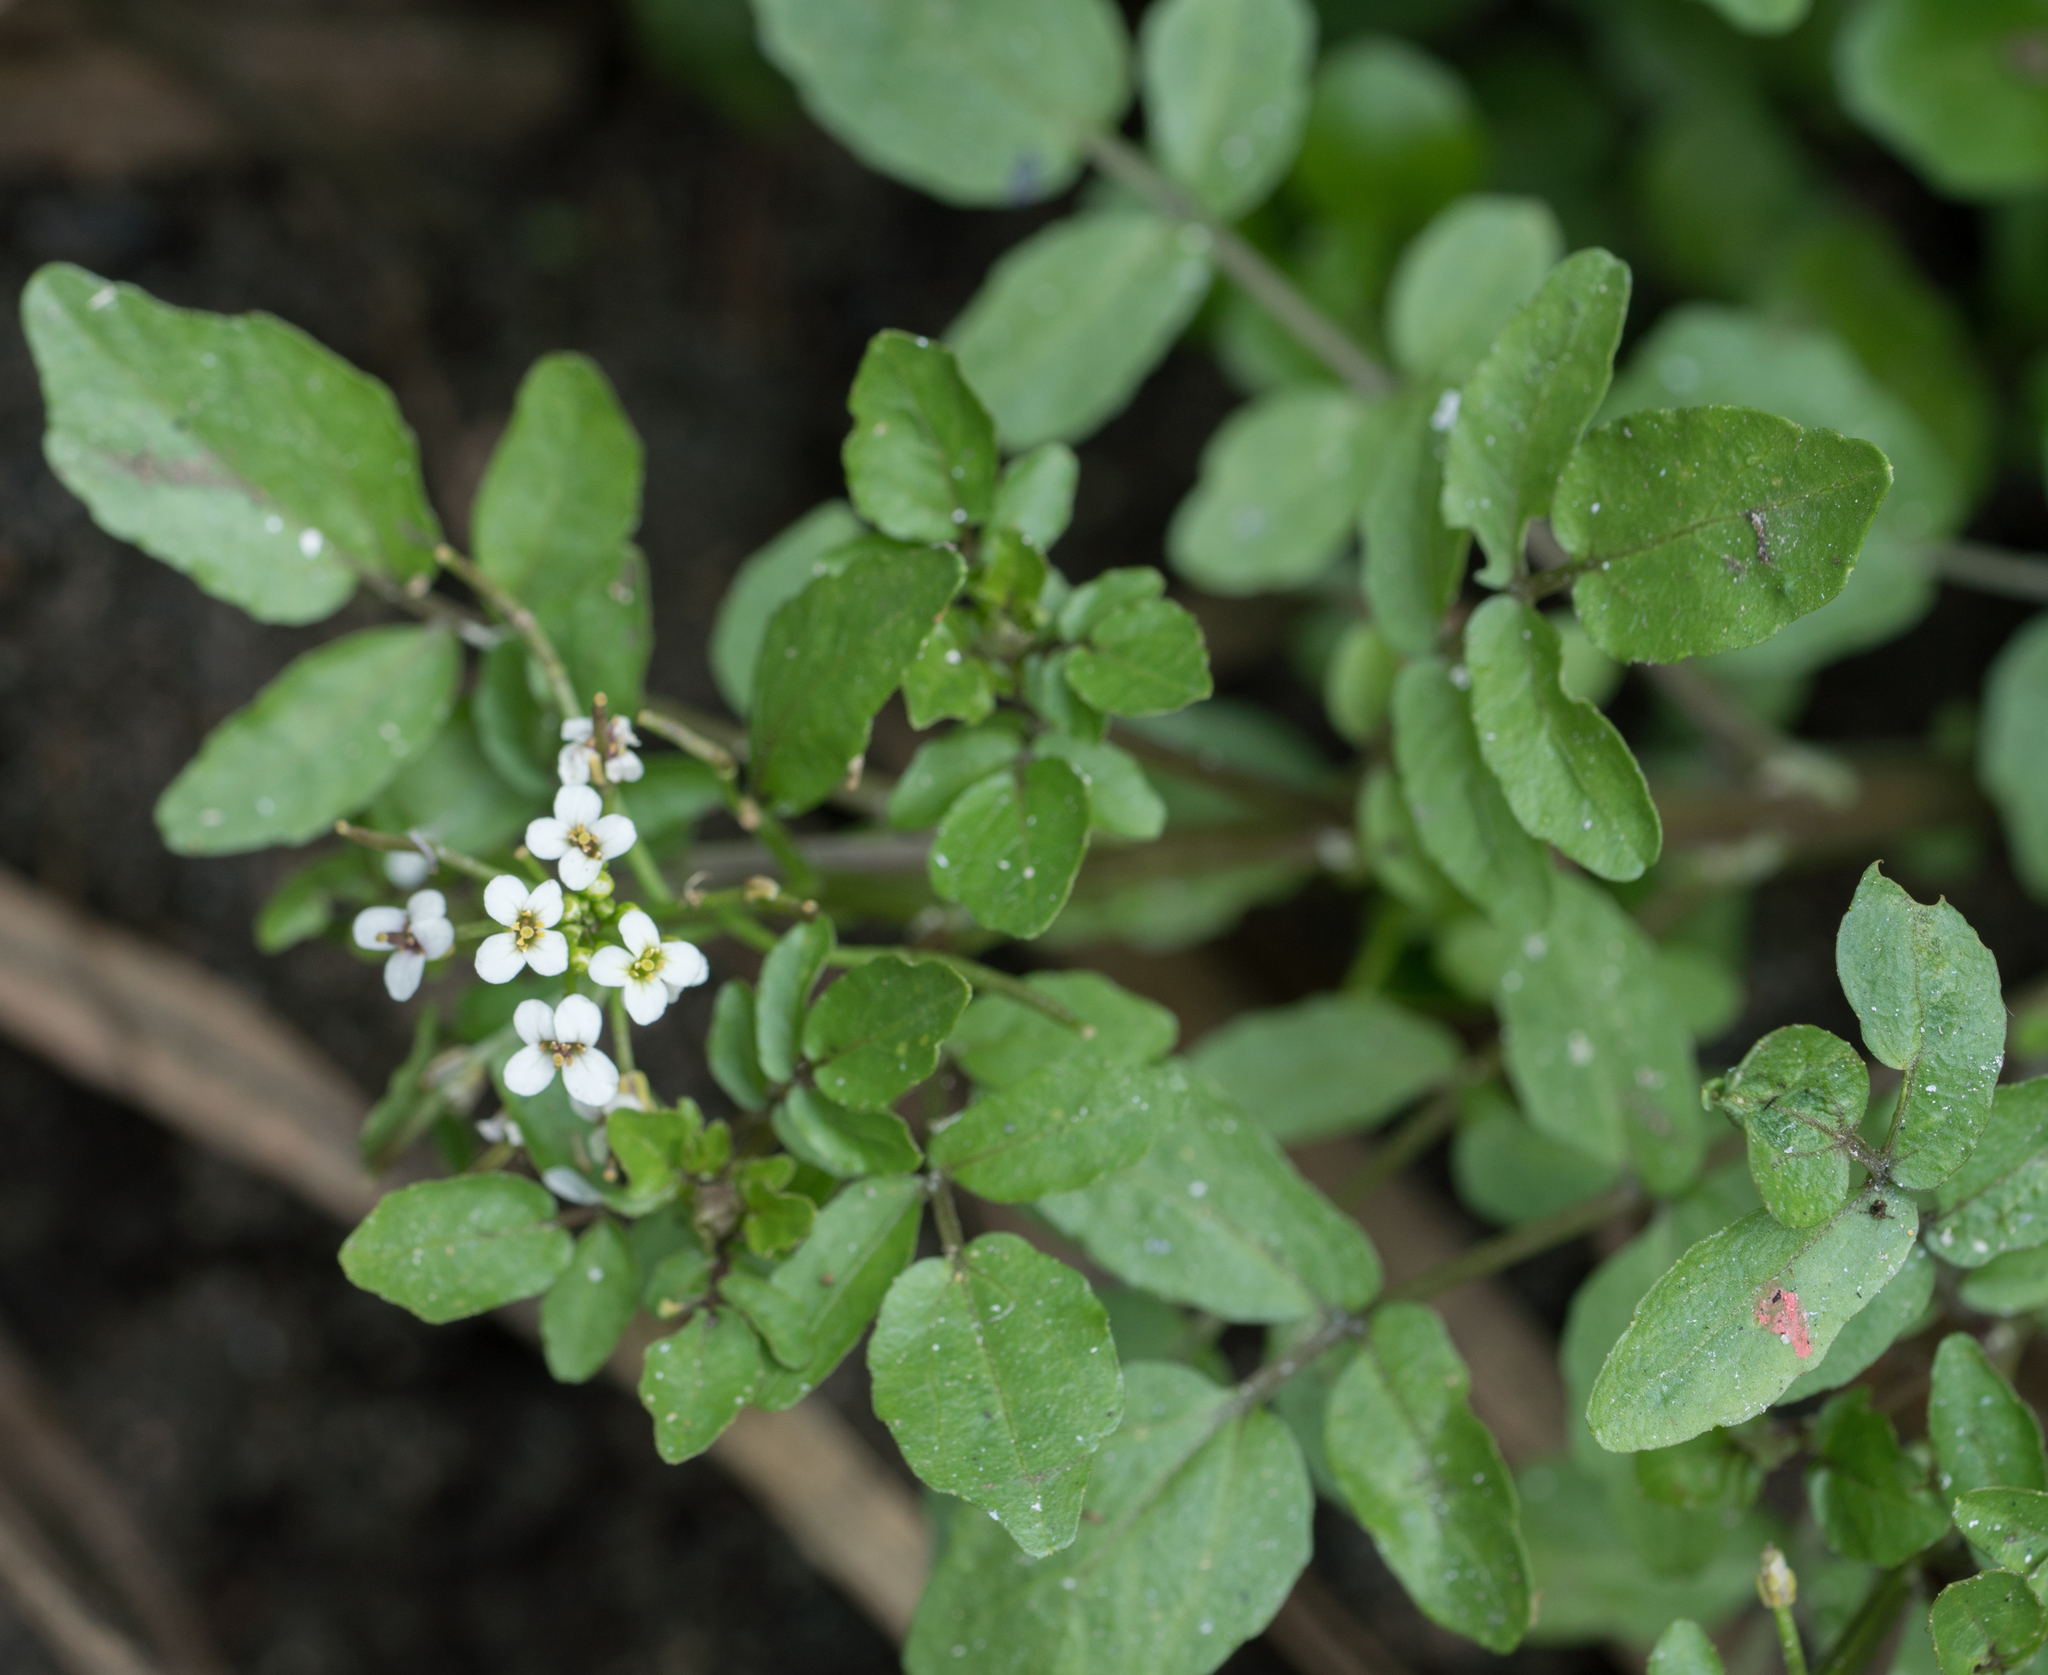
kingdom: Plantae
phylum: Tracheophyta
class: Magnoliopsida
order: Brassicales
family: Brassicaceae
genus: Nasturtium
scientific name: Nasturtium officinale
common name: Watercress
